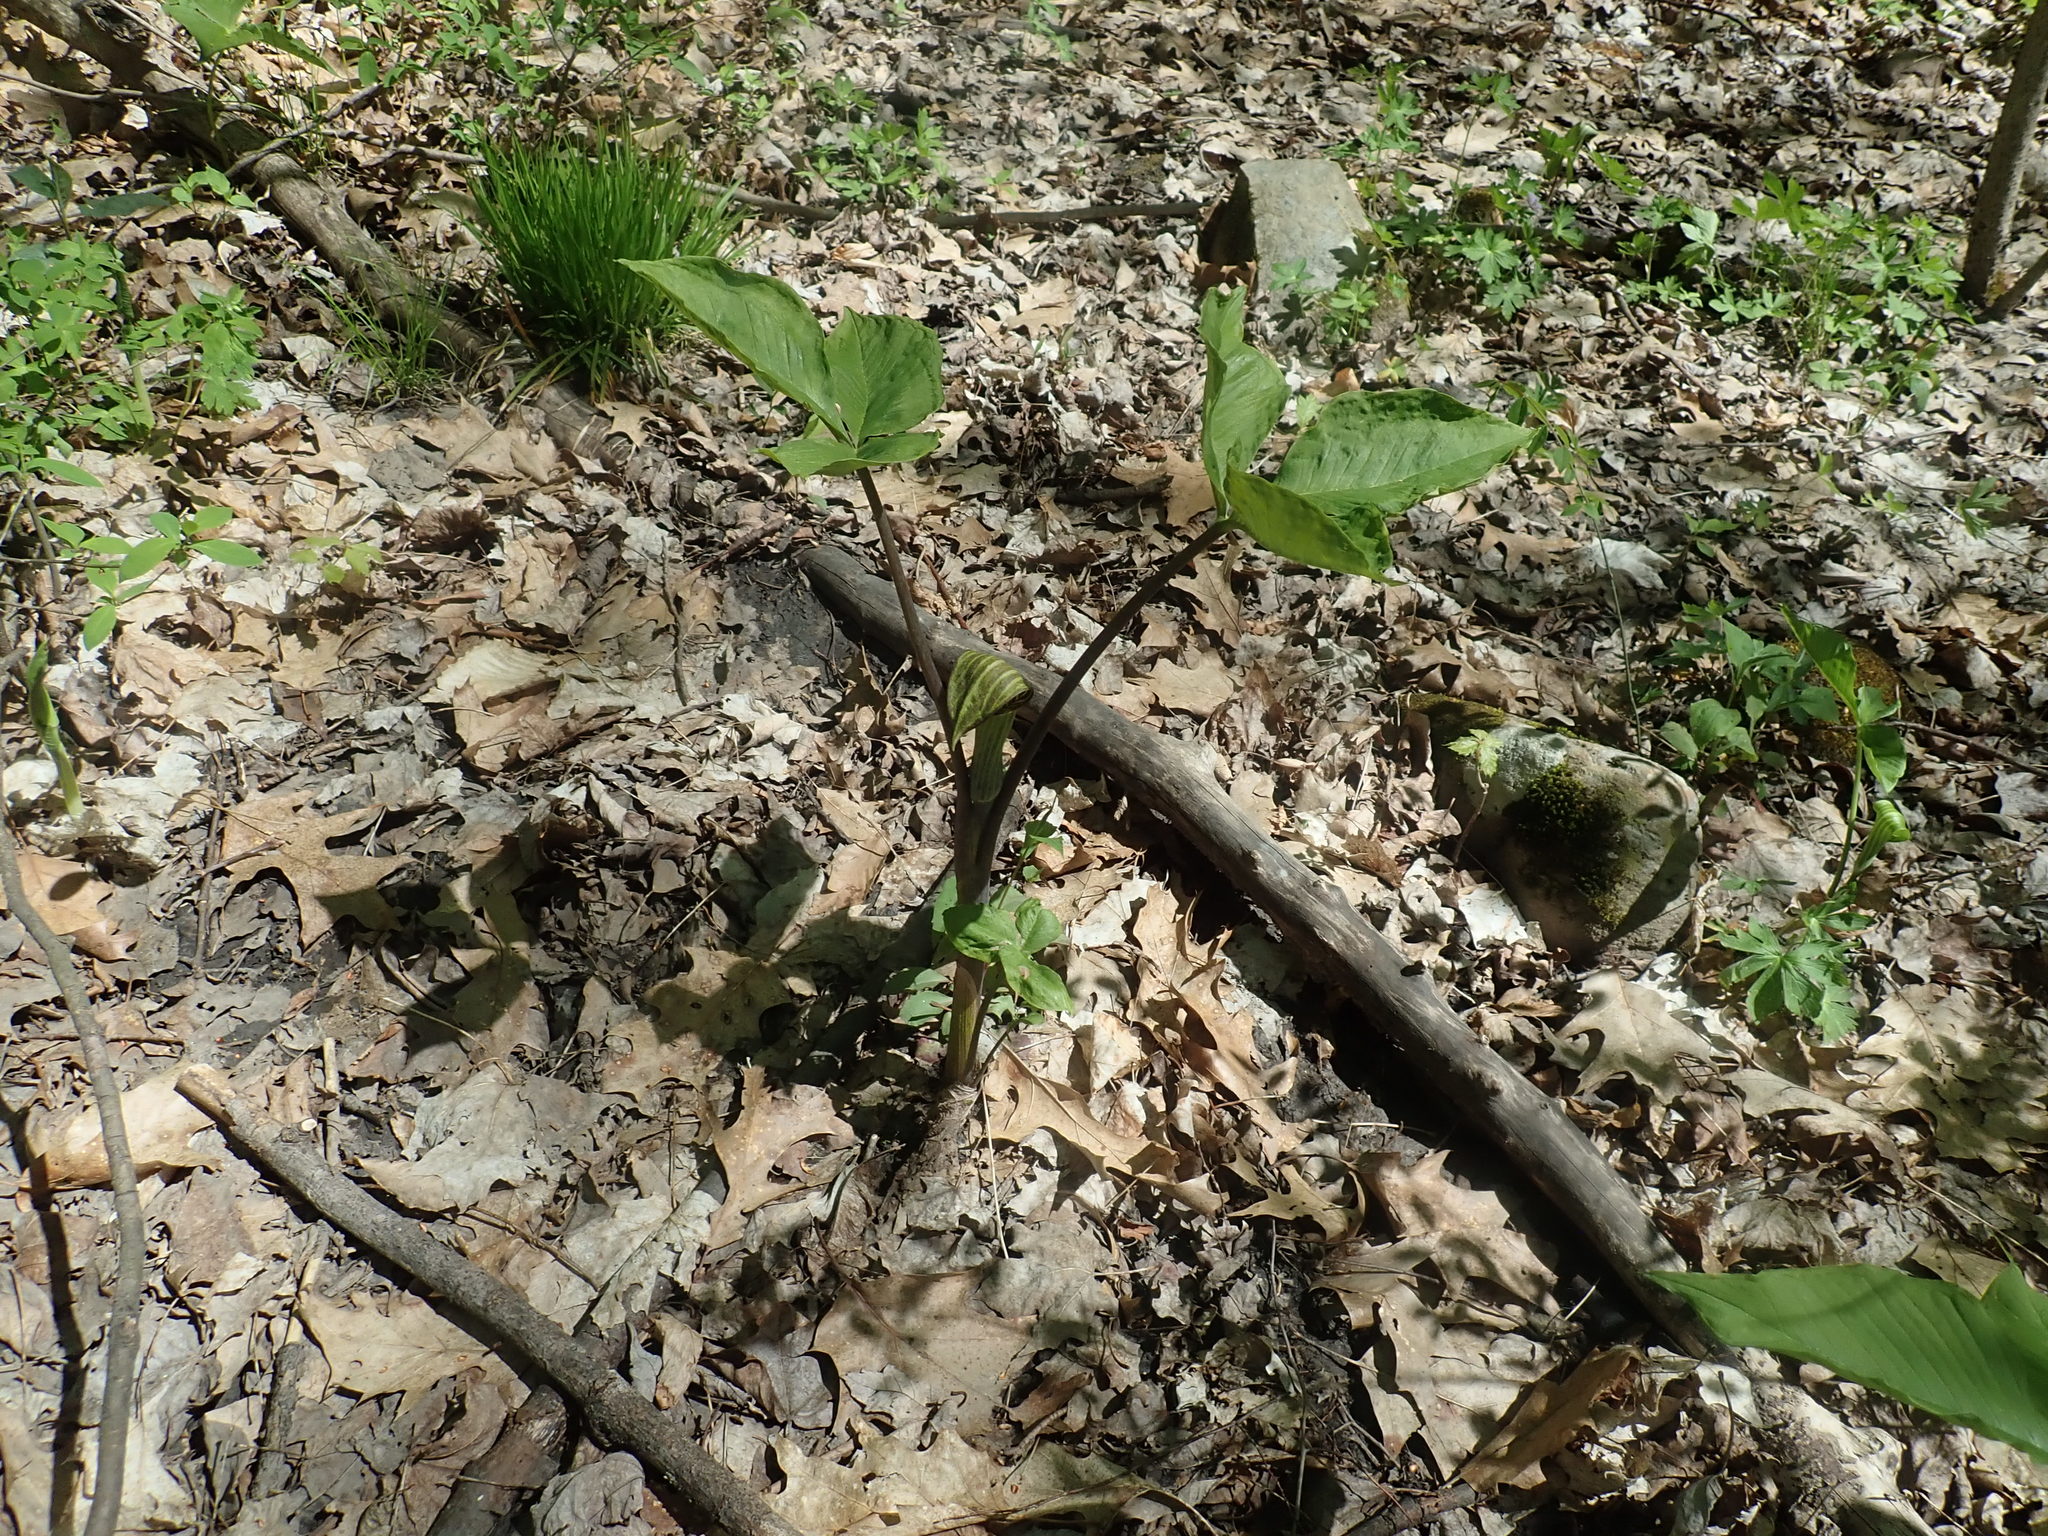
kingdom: Plantae
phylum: Tracheophyta
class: Liliopsida
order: Alismatales
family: Araceae
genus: Arisaema
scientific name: Arisaema triphyllum
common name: Jack-in-the-pulpit
